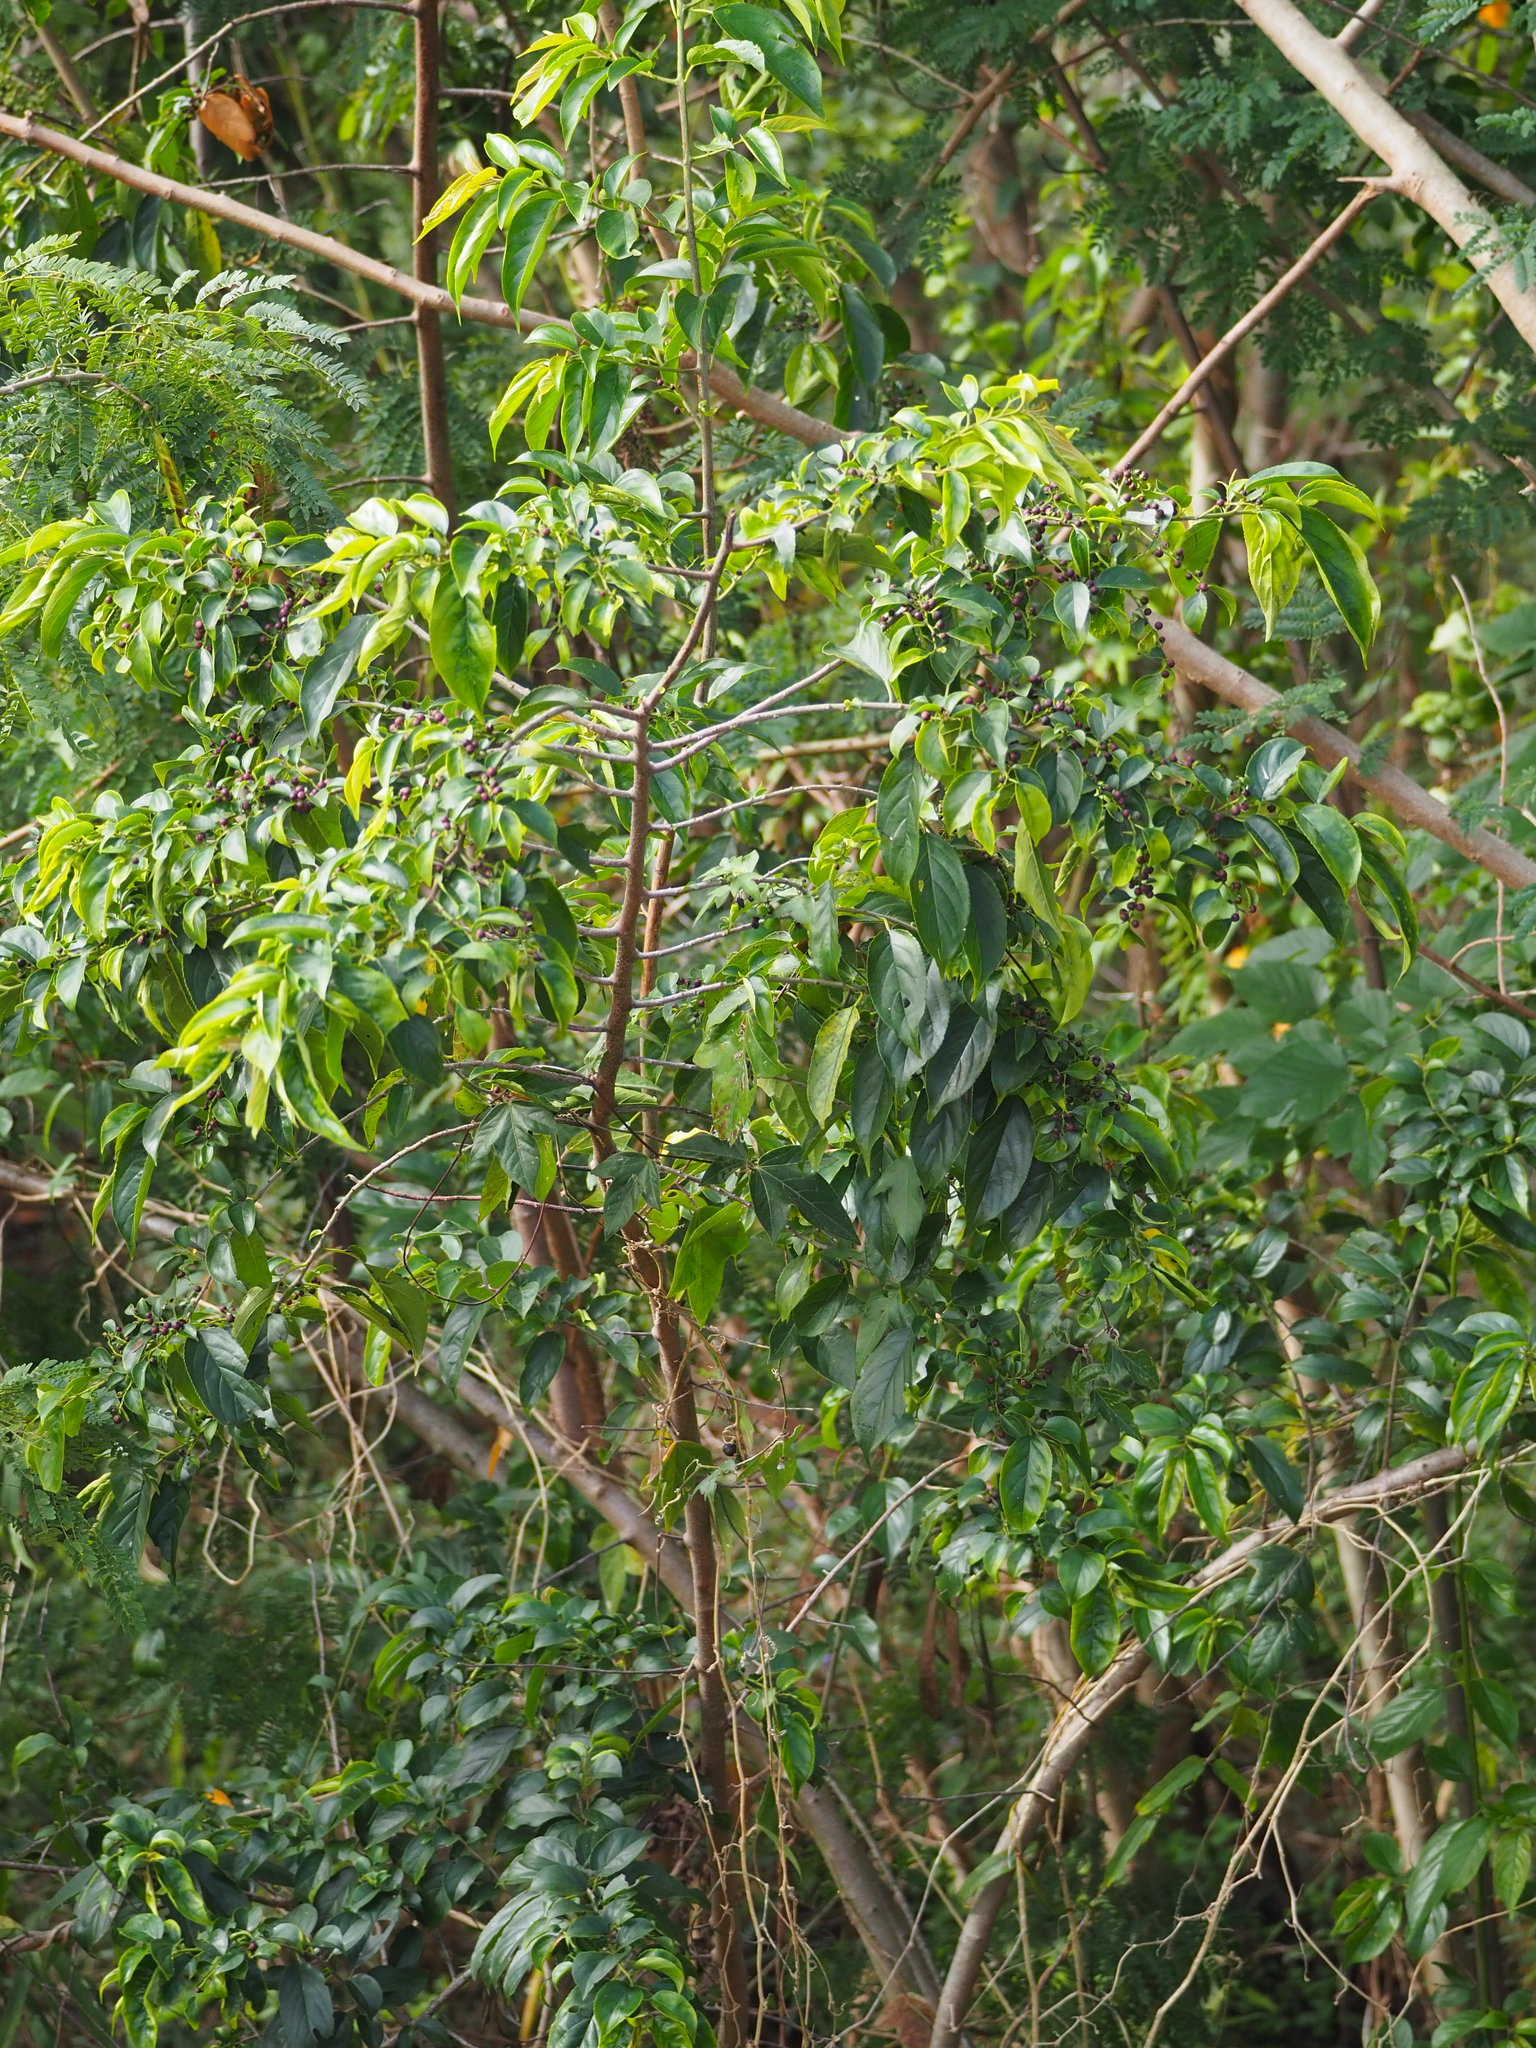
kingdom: Plantae
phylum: Tracheophyta
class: Magnoliopsida
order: Rosales
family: Rhamnaceae
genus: Rhamnus
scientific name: Rhamnus formosana
